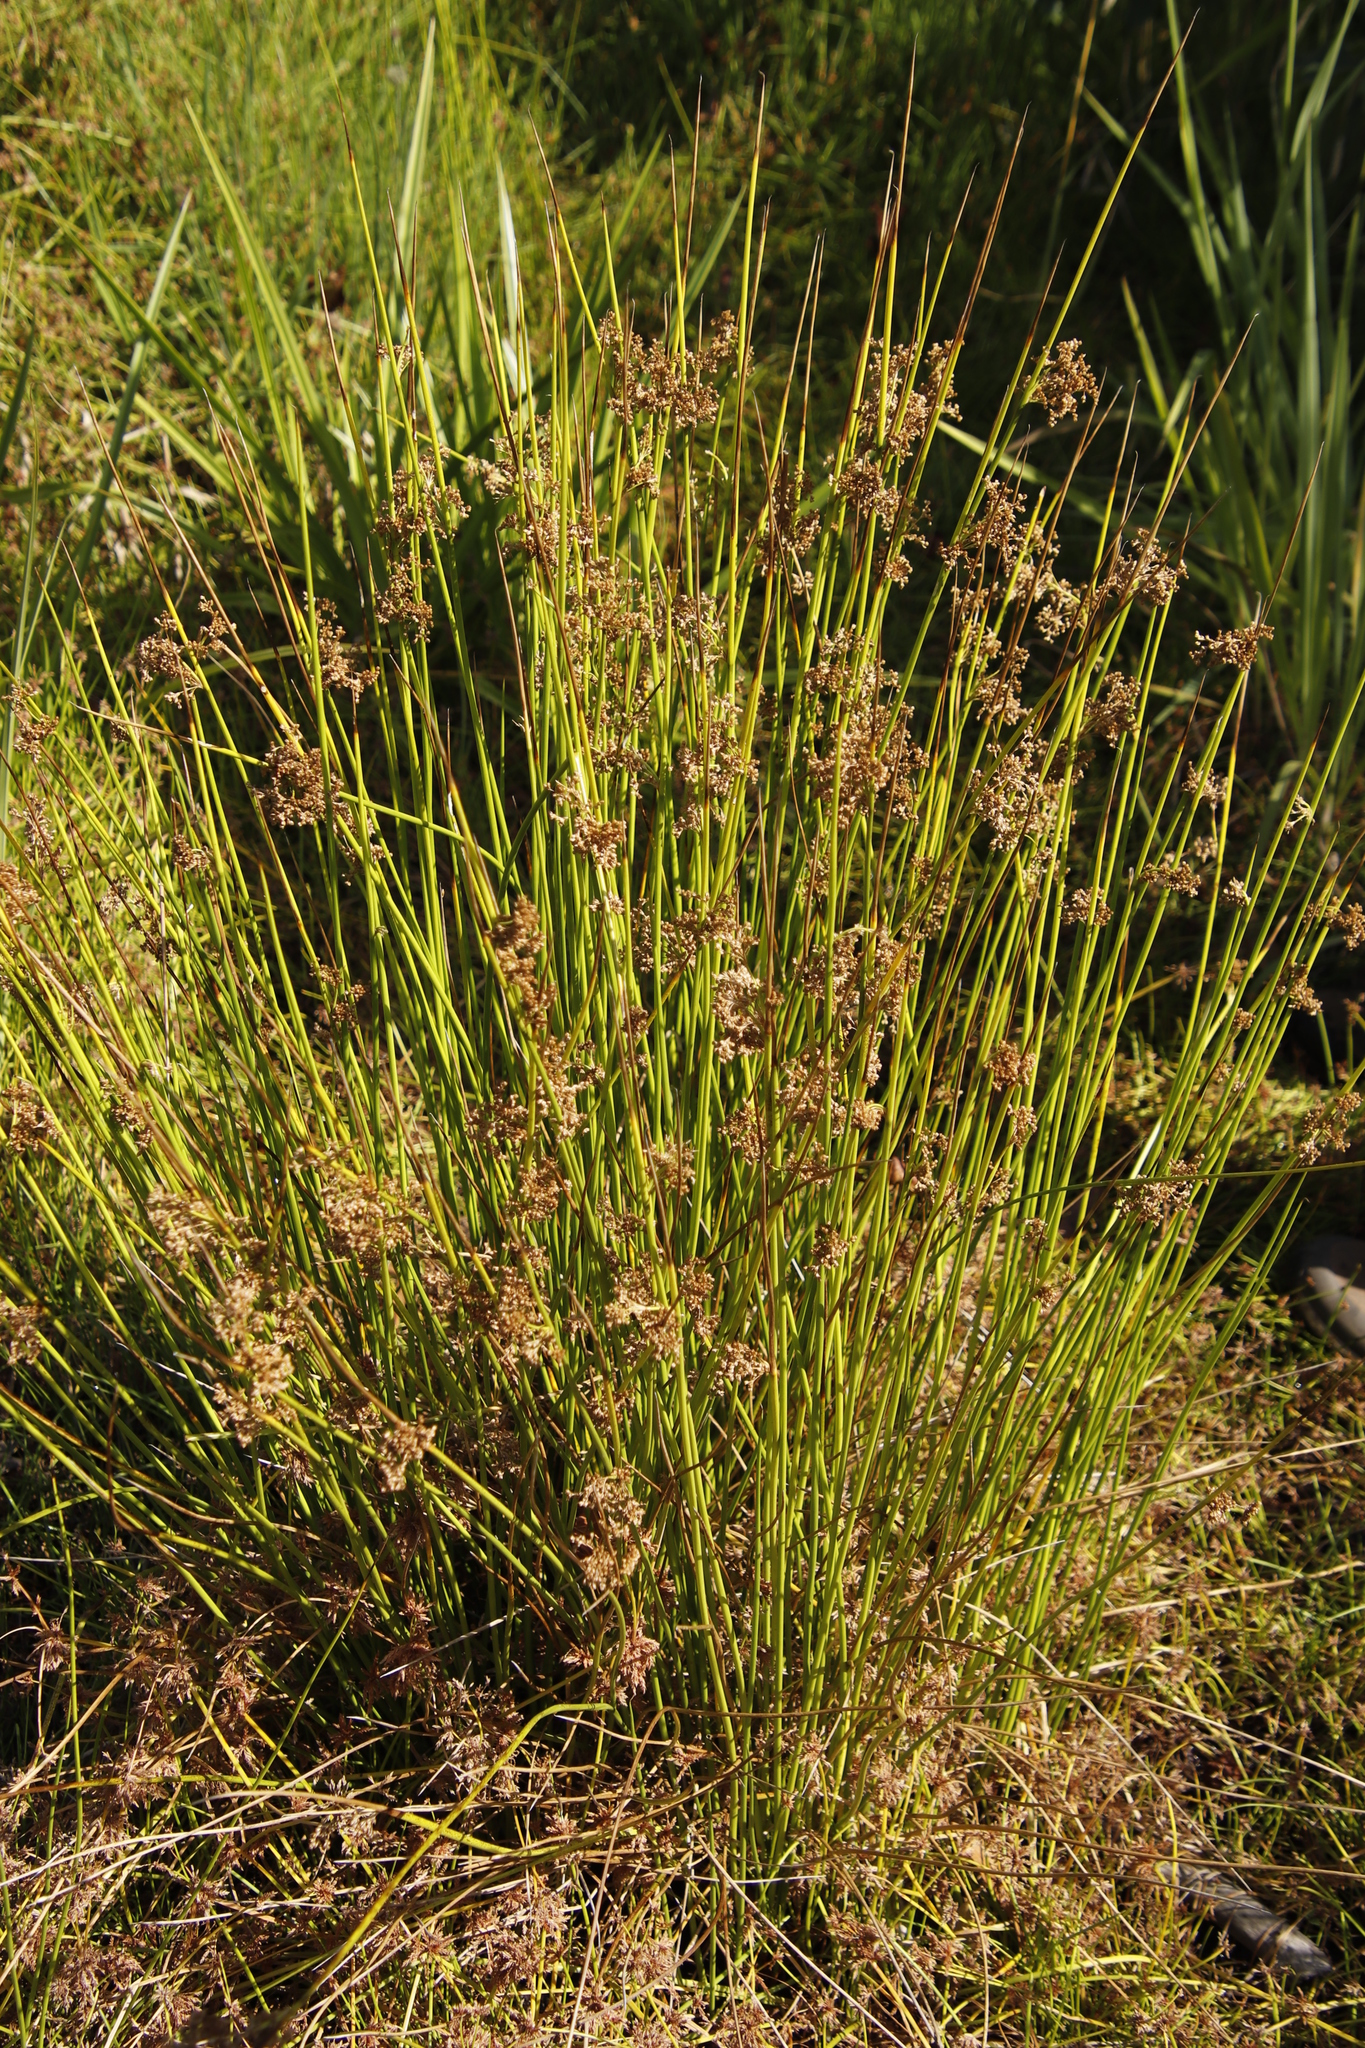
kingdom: Plantae
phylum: Tracheophyta
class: Liliopsida
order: Poales
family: Juncaceae
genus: Juncus
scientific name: Juncus effusus
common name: Soft rush
